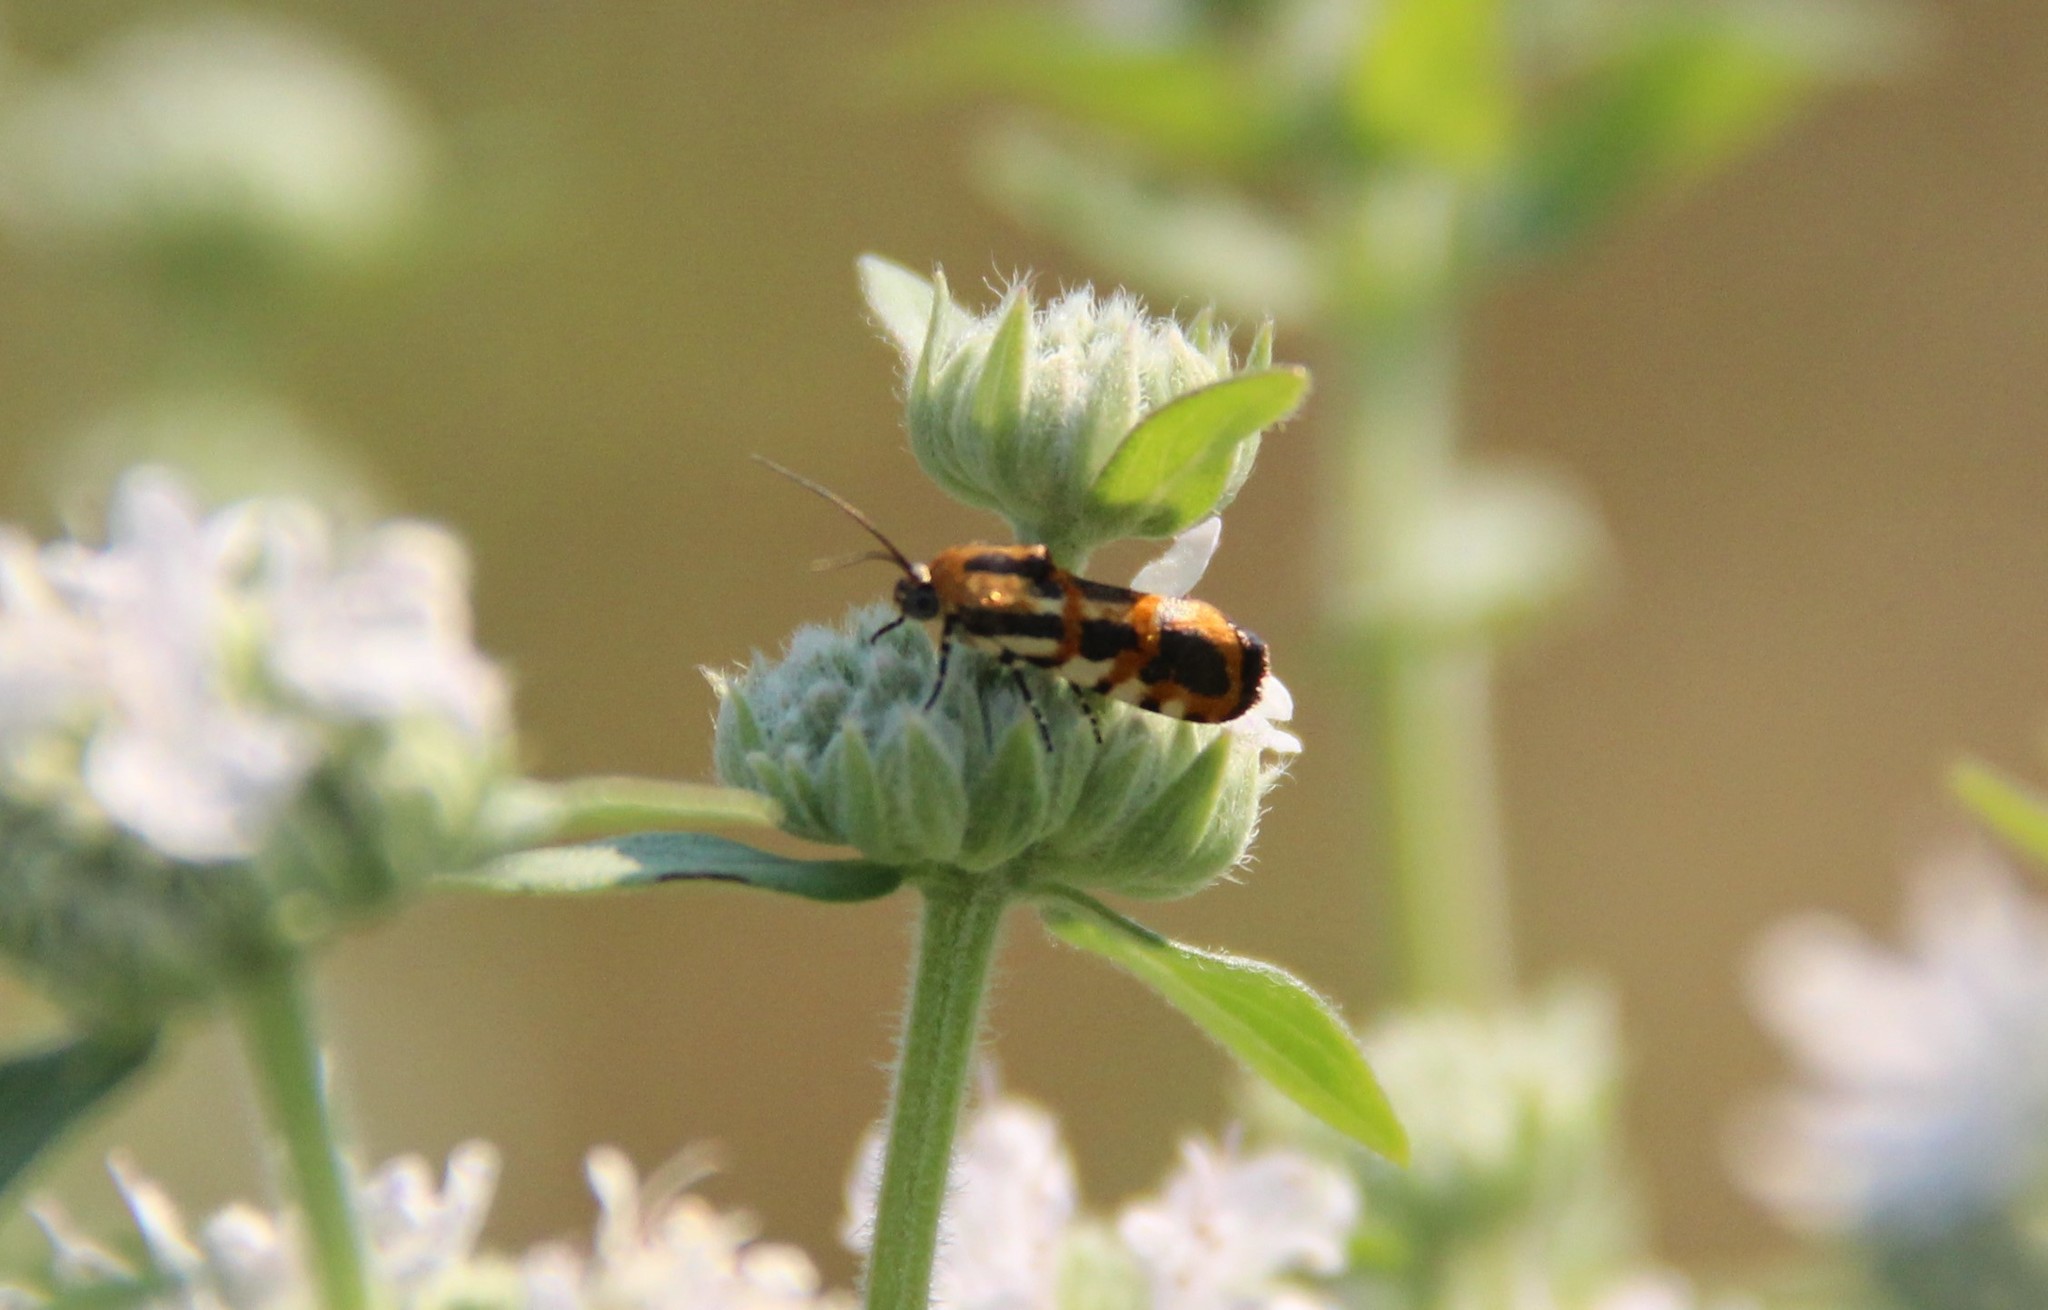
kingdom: Animalia
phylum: Arthropoda
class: Insecta
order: Lepidoptera
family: Noctuidae
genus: Acontia
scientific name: Acontia leo
